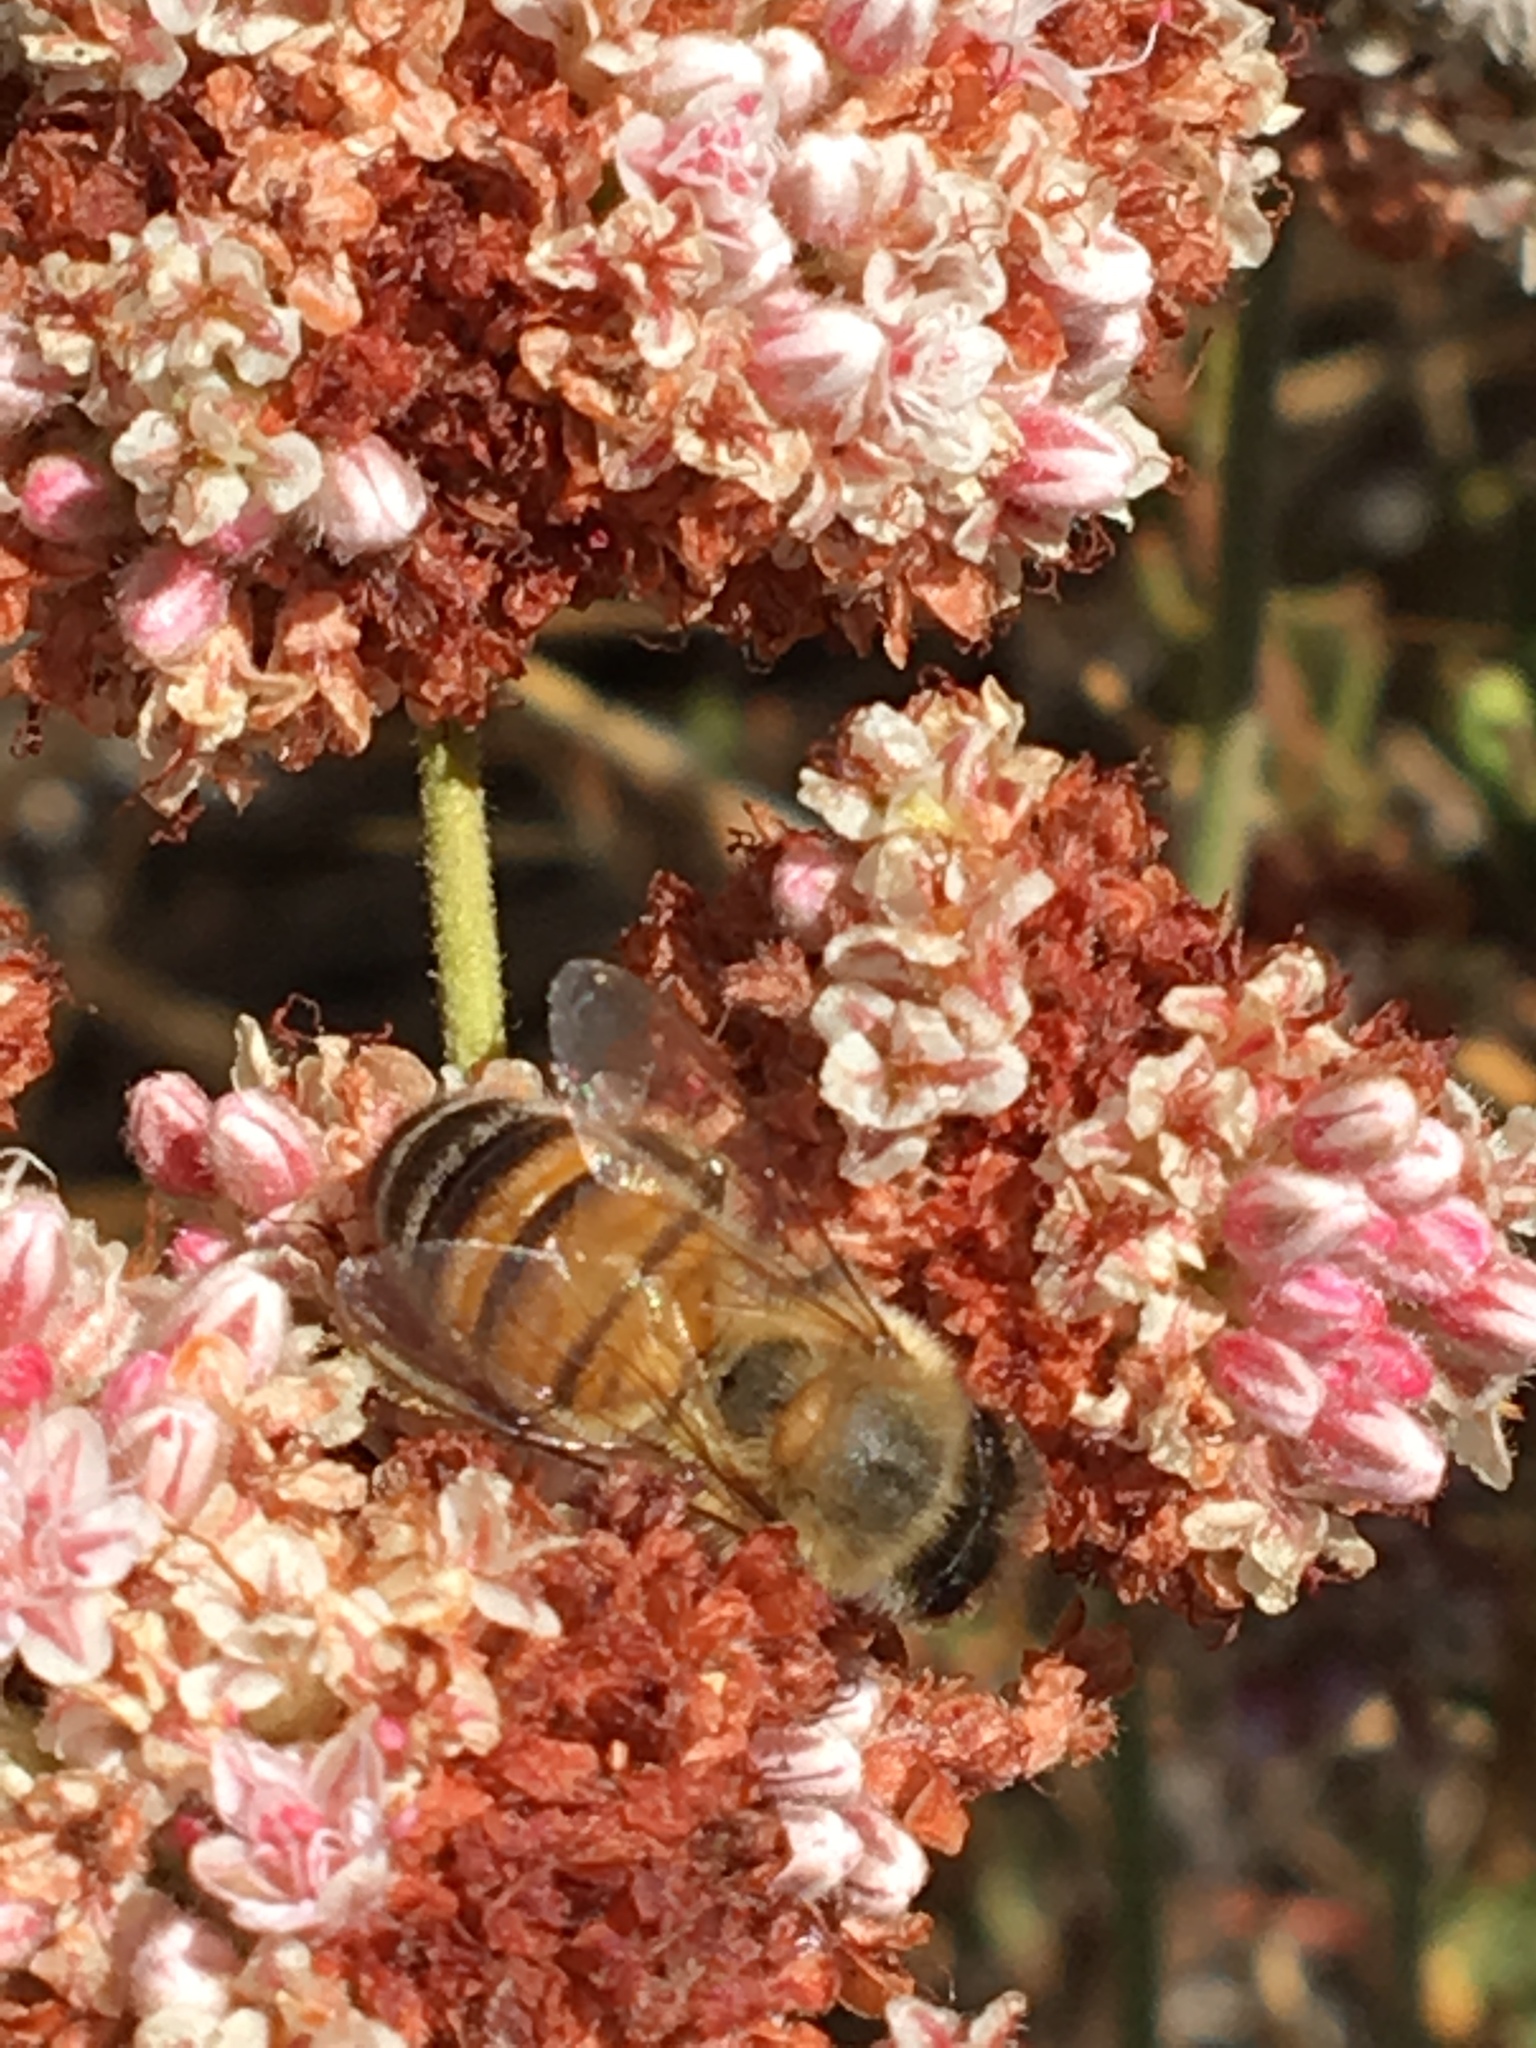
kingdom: Animalia
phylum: Arthropoda
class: Insecta
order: Hymenoptera
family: Apidae
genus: Apis
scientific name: Apis mellifera
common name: Honey bee
